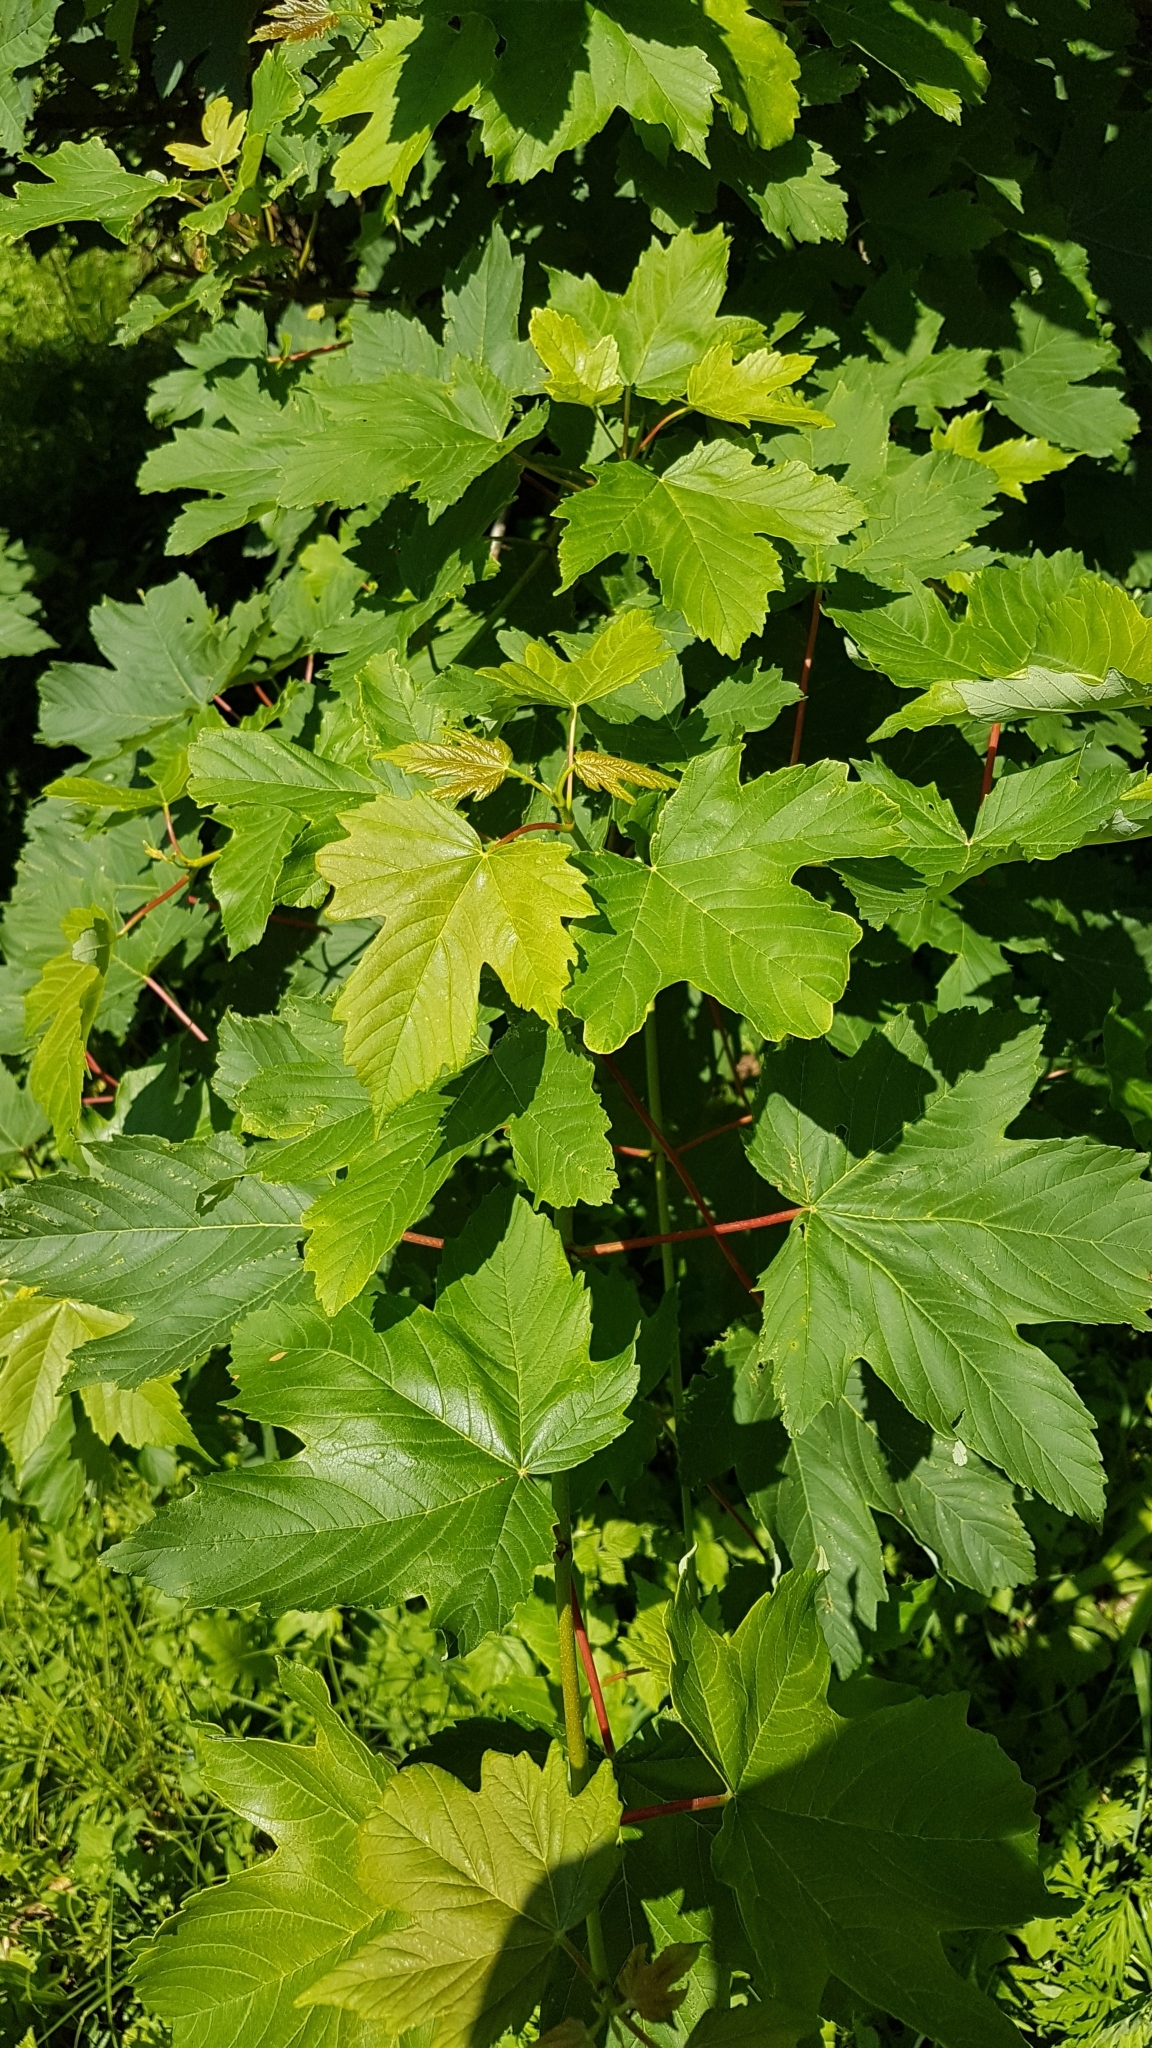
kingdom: Plantae
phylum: Tracheophyta
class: Magnoliopsida
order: Sapindales
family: Sapindaceae
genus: Acer
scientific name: Acer pseudoplatanus
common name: Sycamore
